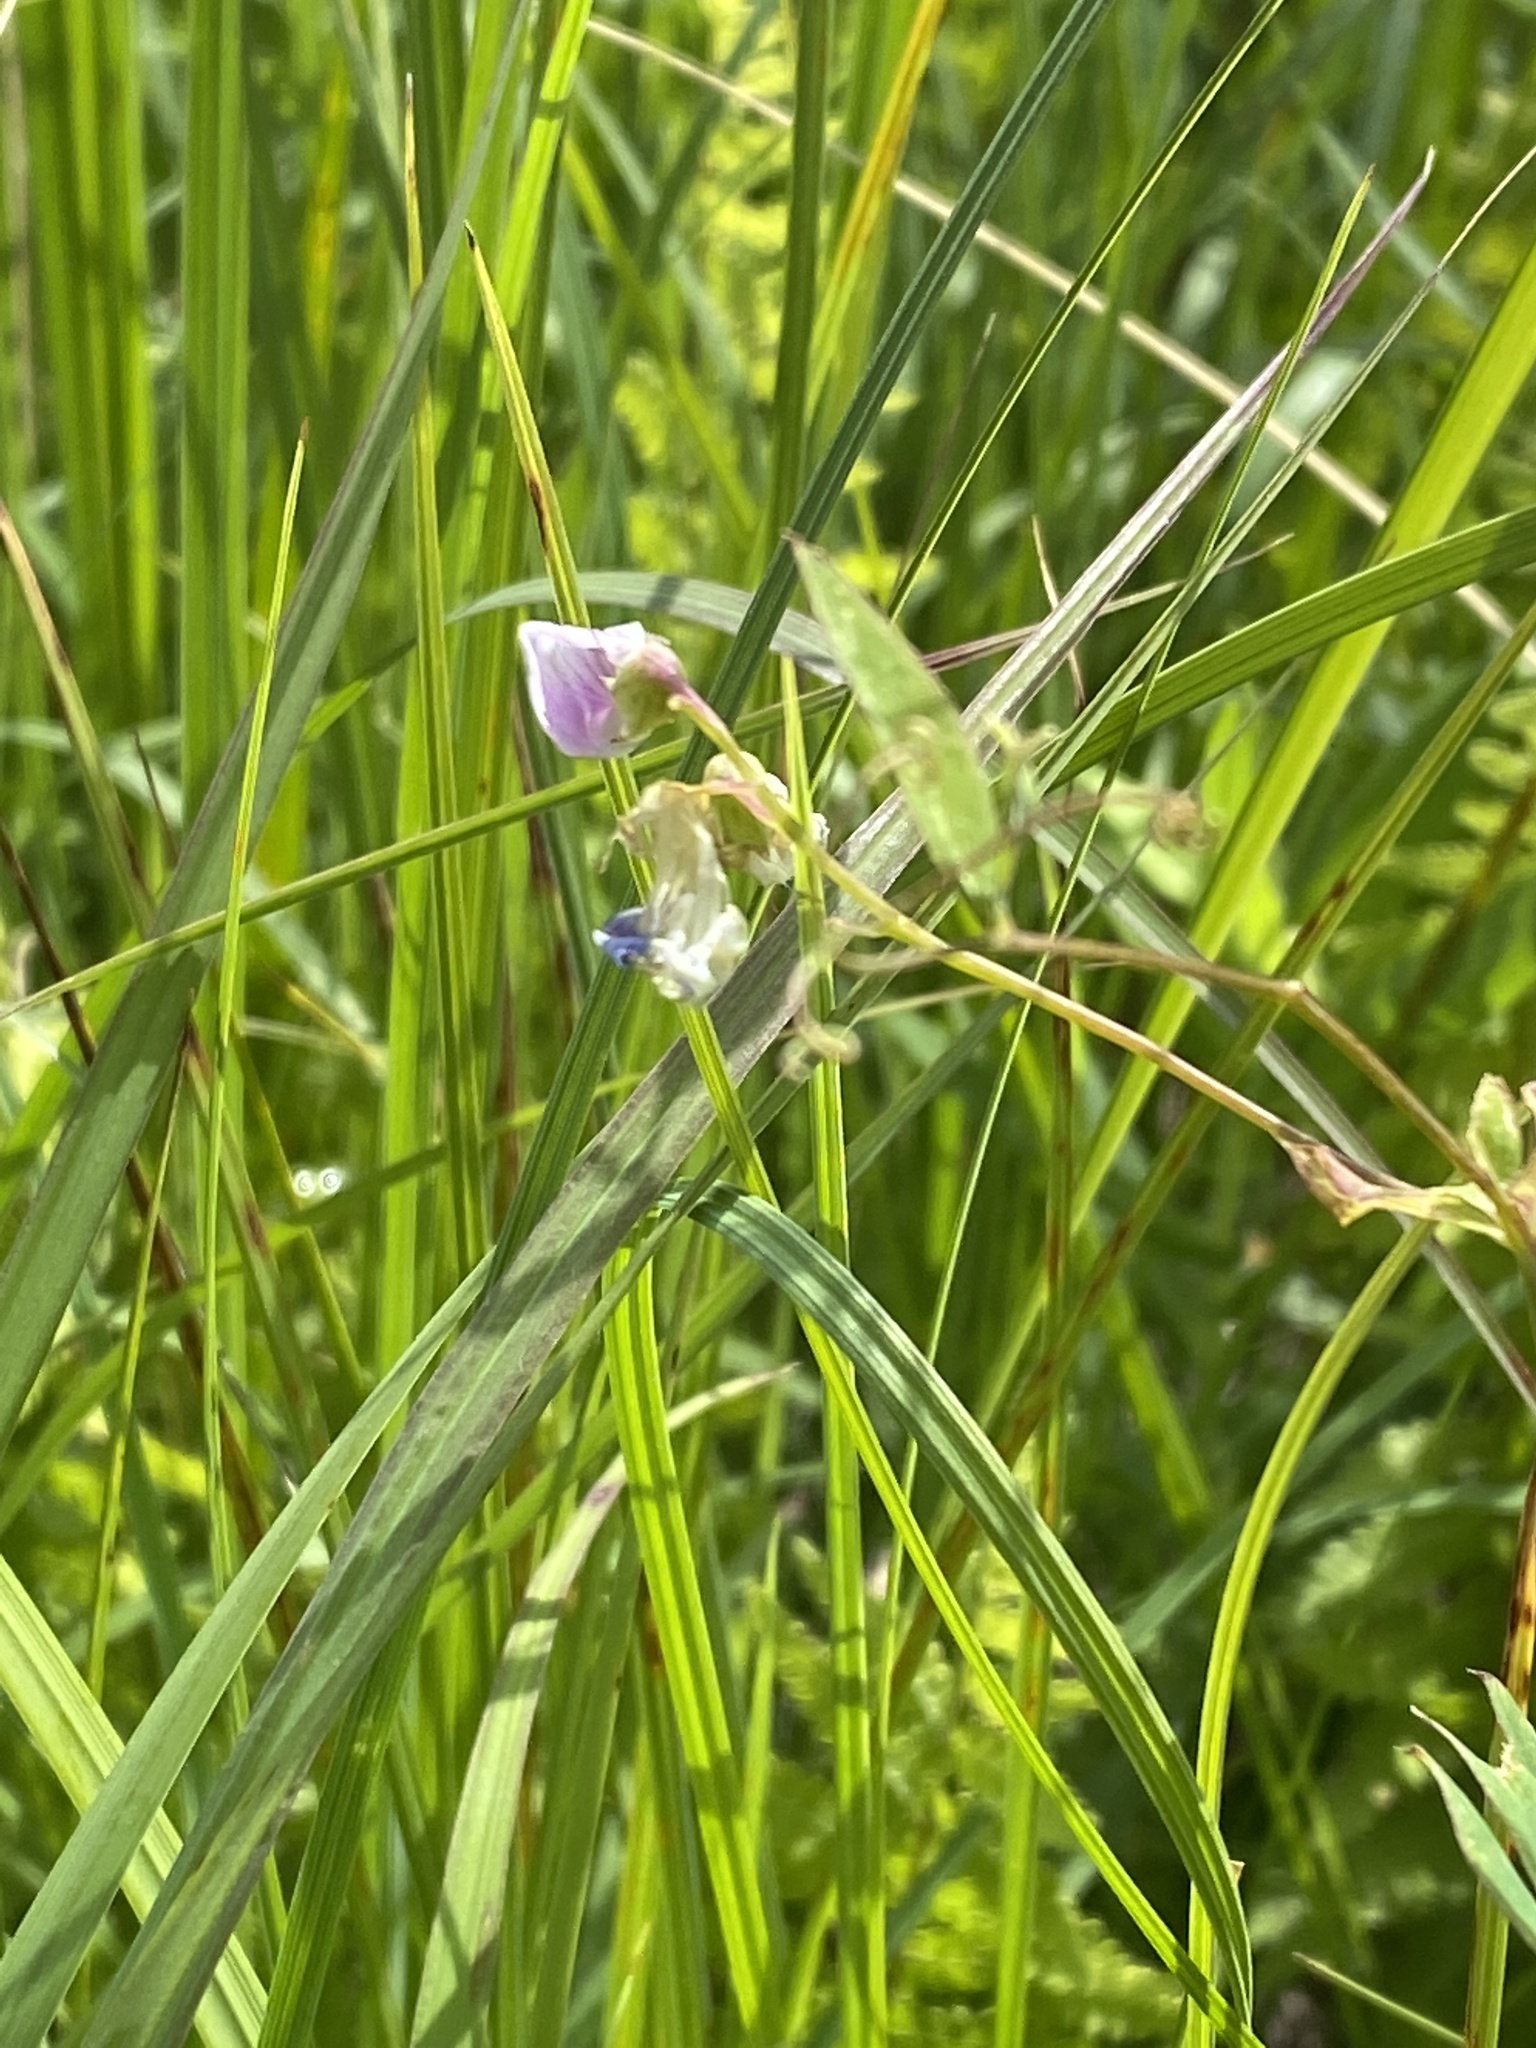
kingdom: Plantae
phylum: Tracheophyta
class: Magnoliopsida
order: Fabales
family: Fabaceae
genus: Lathyrus
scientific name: Lathyrus palustris
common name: Marsh pea
